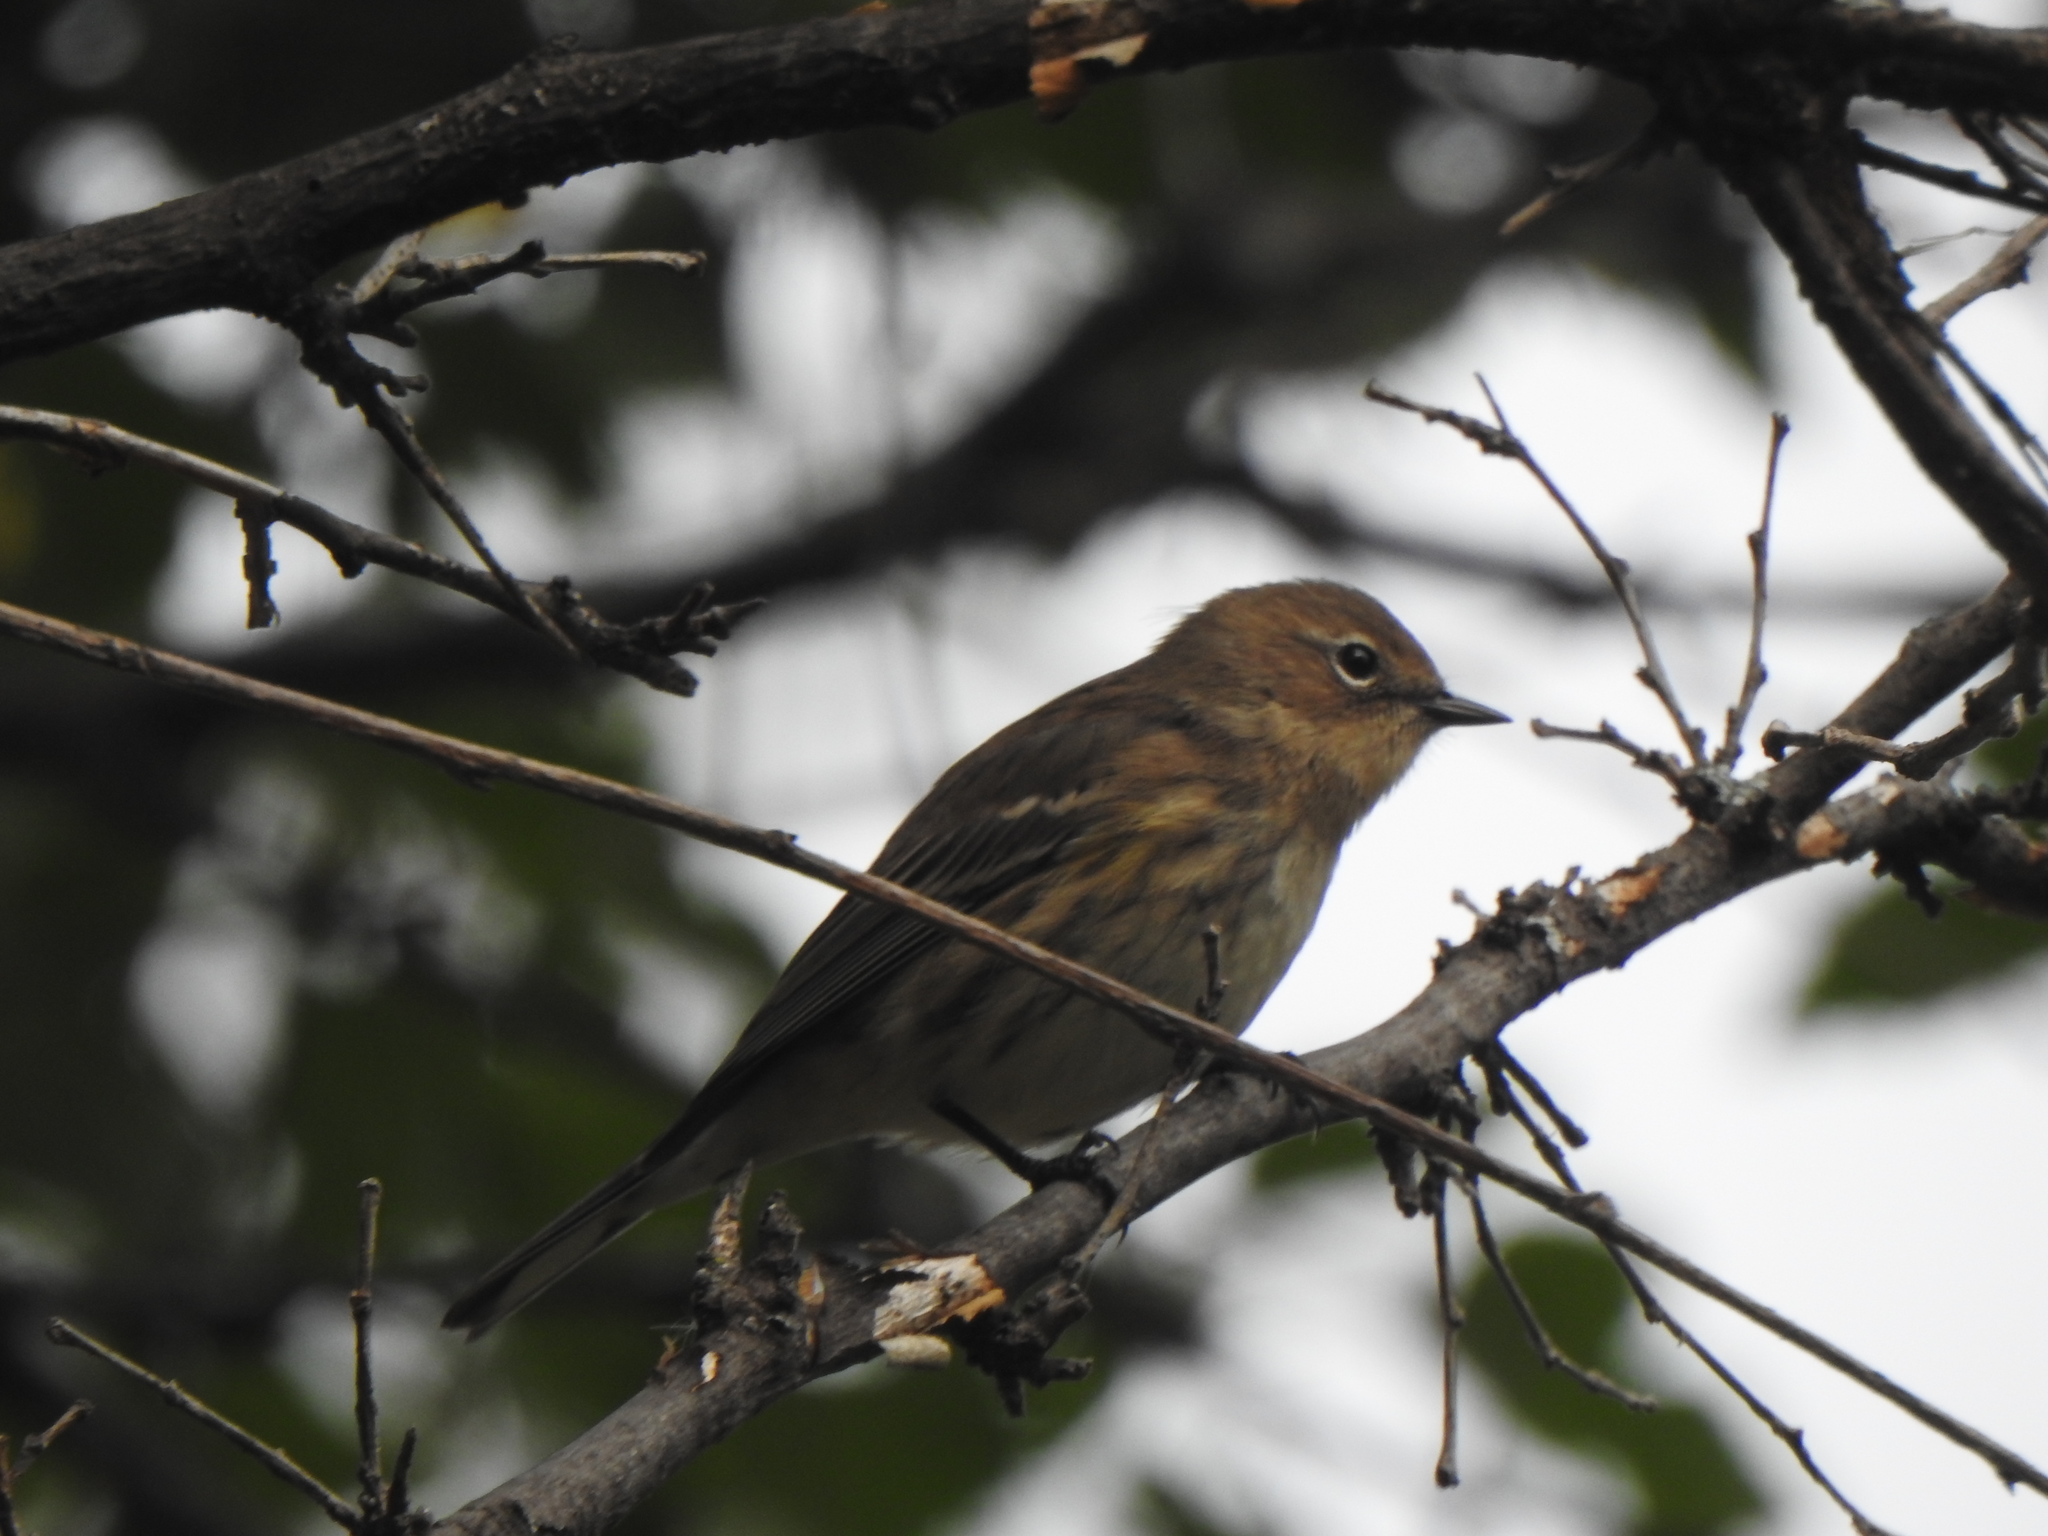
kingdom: Animalia
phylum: Chordata
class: Aves
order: Passeriformes
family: Parulidae
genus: Setophaga
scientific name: Setophaga coronata
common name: Myrtle warbler
